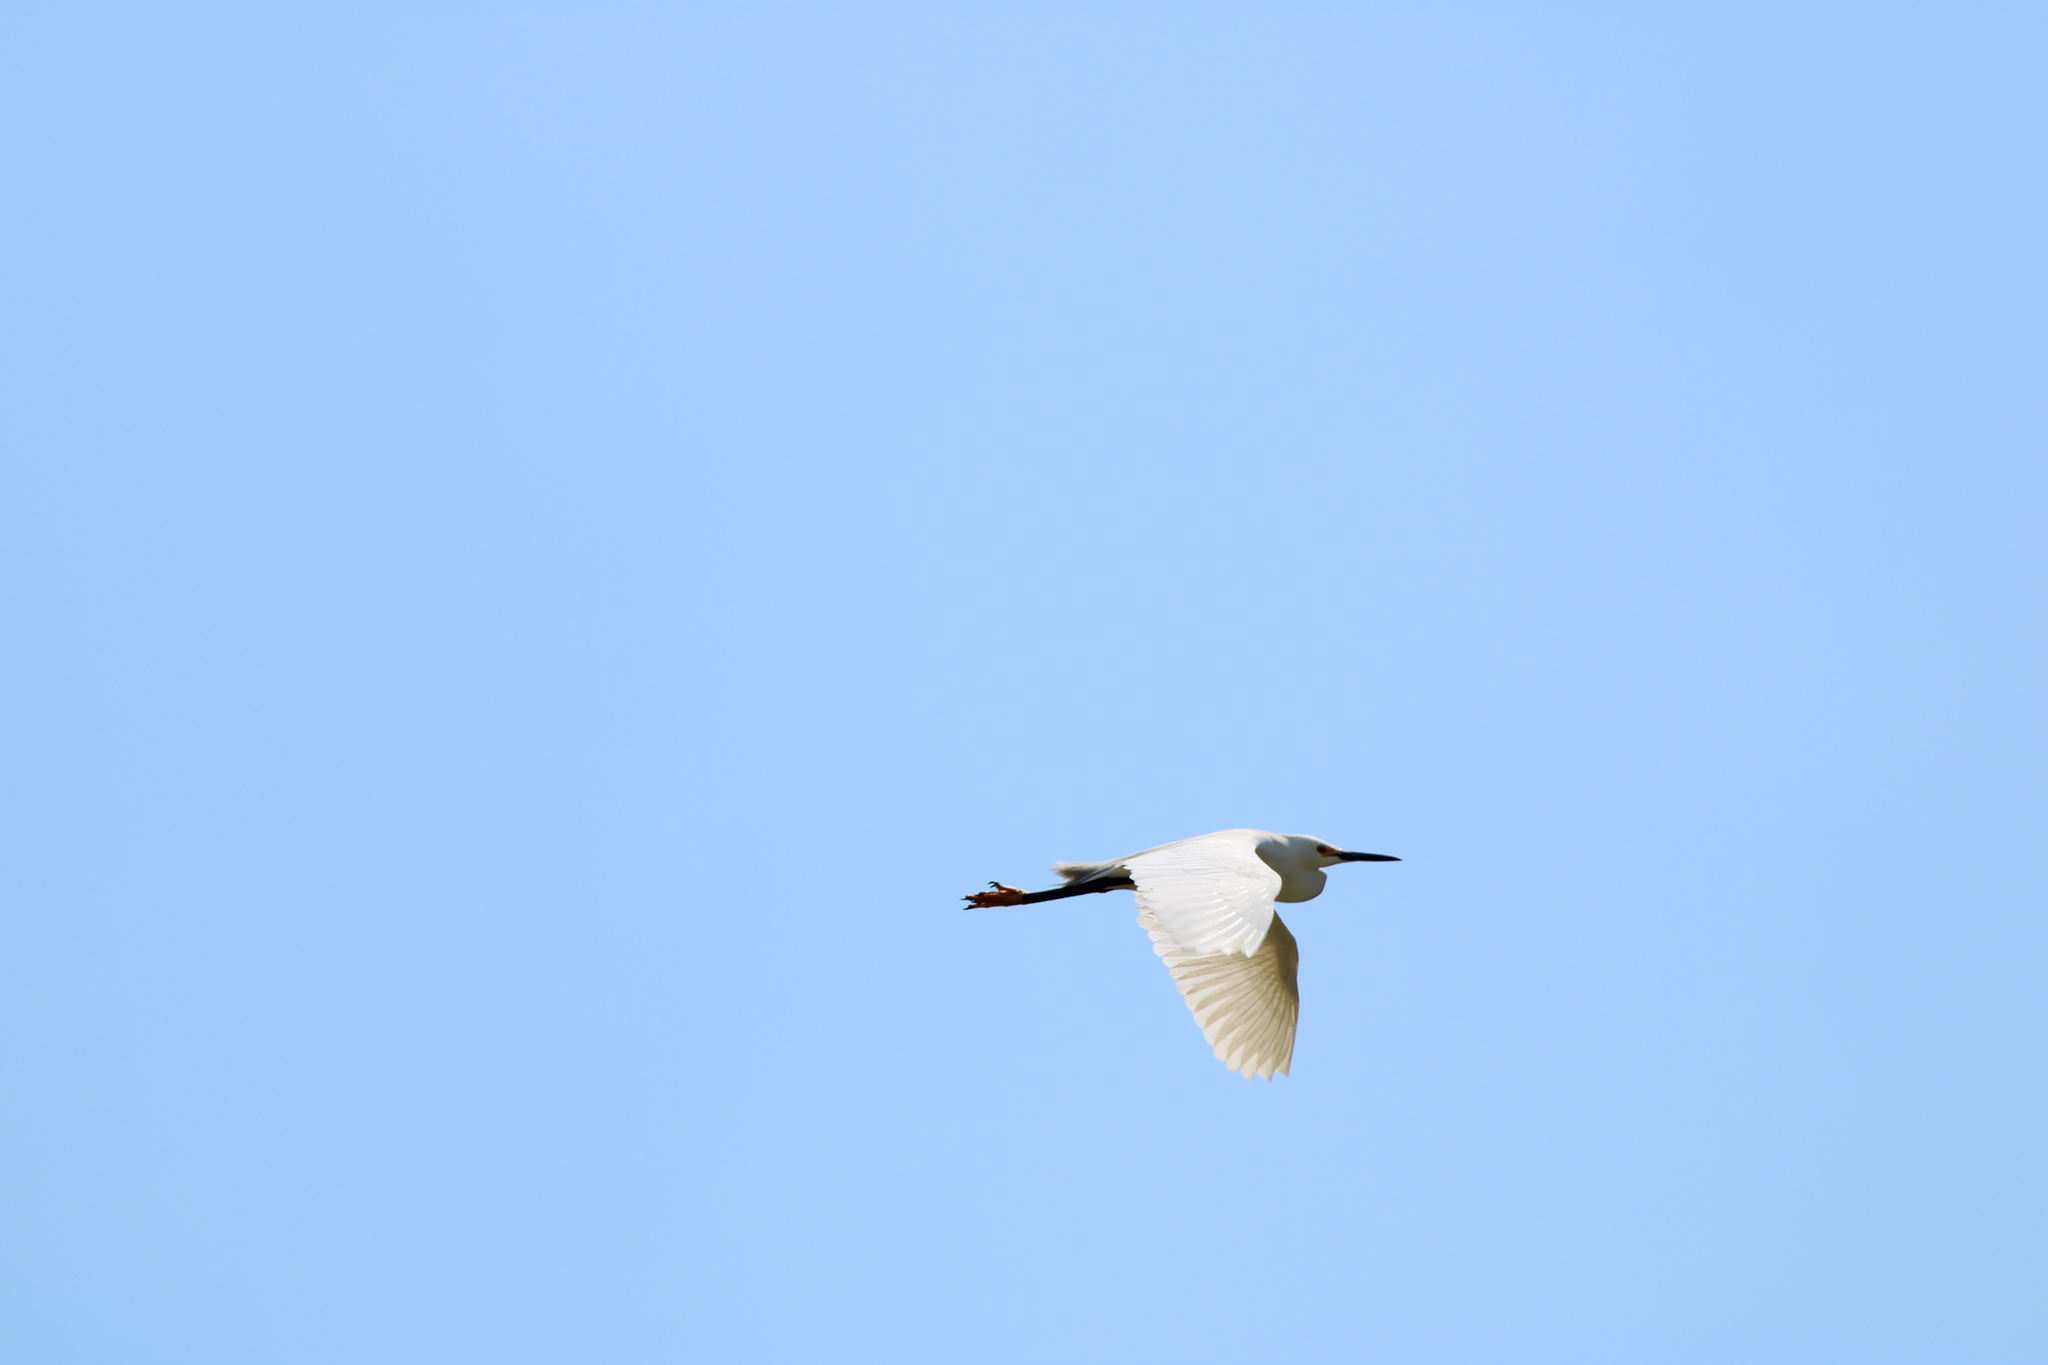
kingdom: Animalia
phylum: Chordata
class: Aves
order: Pelecaniformes
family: Ardeidae
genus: Egretta
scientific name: Egretta thula
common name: Snowy egret
